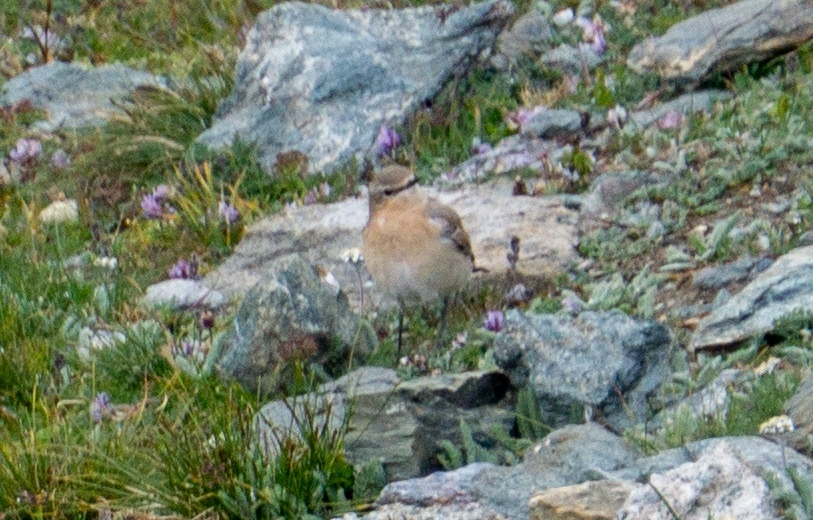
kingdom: Animalia
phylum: Chordata
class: Aves
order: Passeriformes
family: Muscicapidae
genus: Oenanthe
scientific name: Oenanthe oenanthe
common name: Northern wheatear
